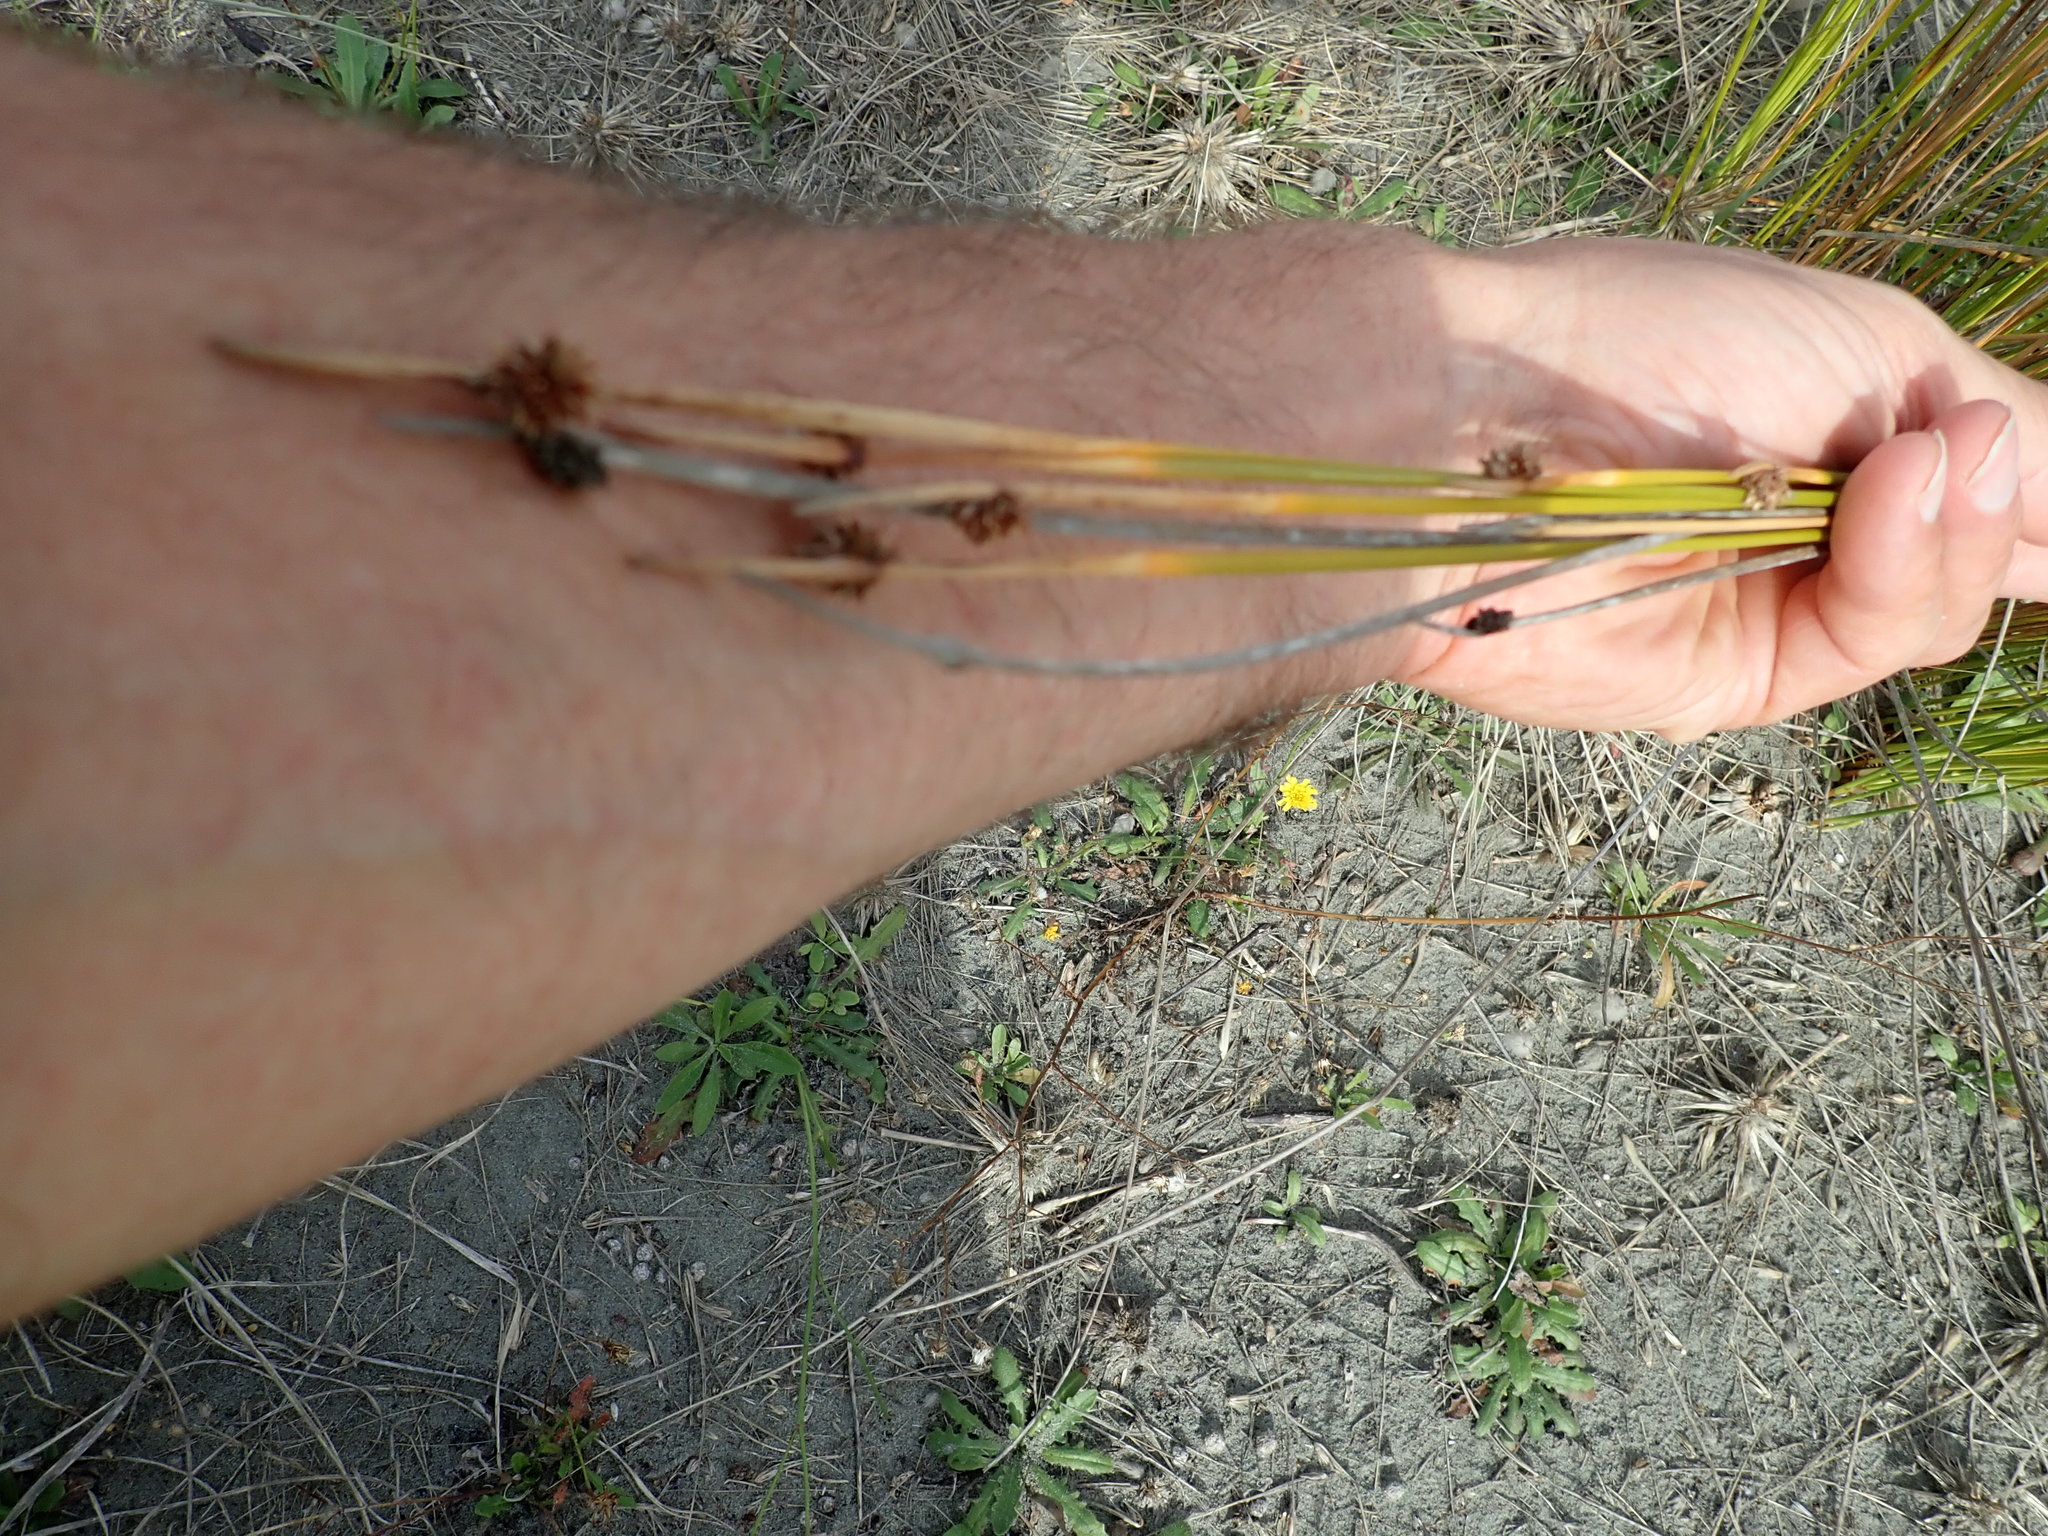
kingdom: Plantae
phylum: Tracheophyta
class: Liliopsida
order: Poales
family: Cyperaceae
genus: Ficinia
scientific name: Ficinia nodosa
